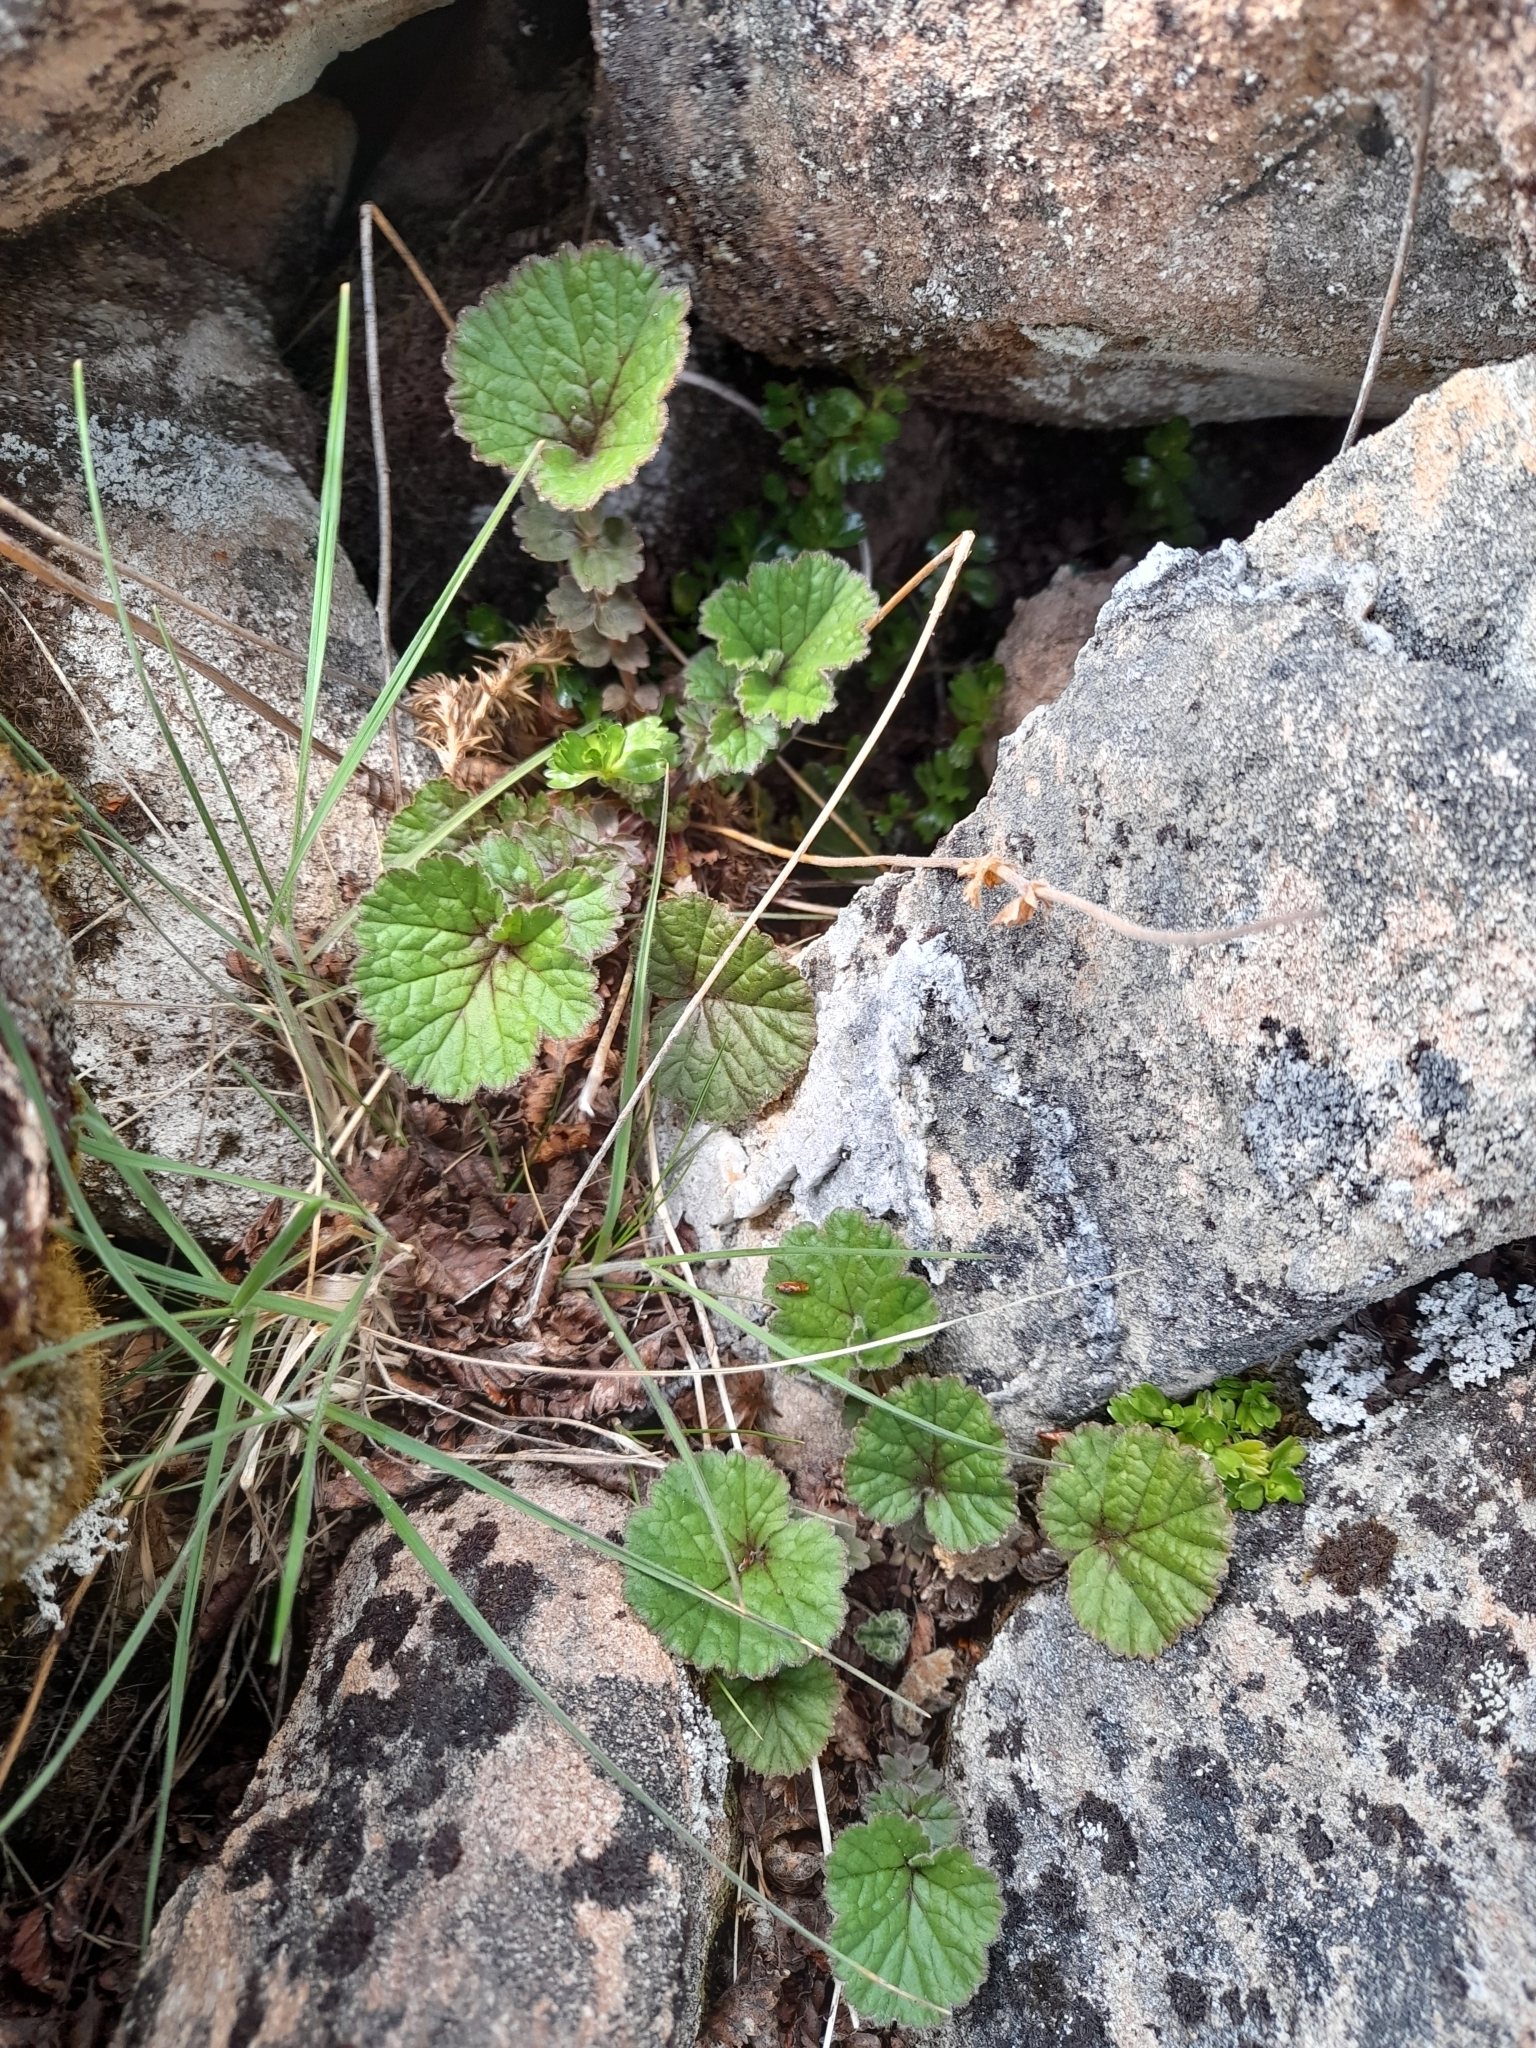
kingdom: Plantae
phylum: Tracheophyta
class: Magnoliopsida
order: Rosales
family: Rosaceae
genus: Geum
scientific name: Geum involucratum
